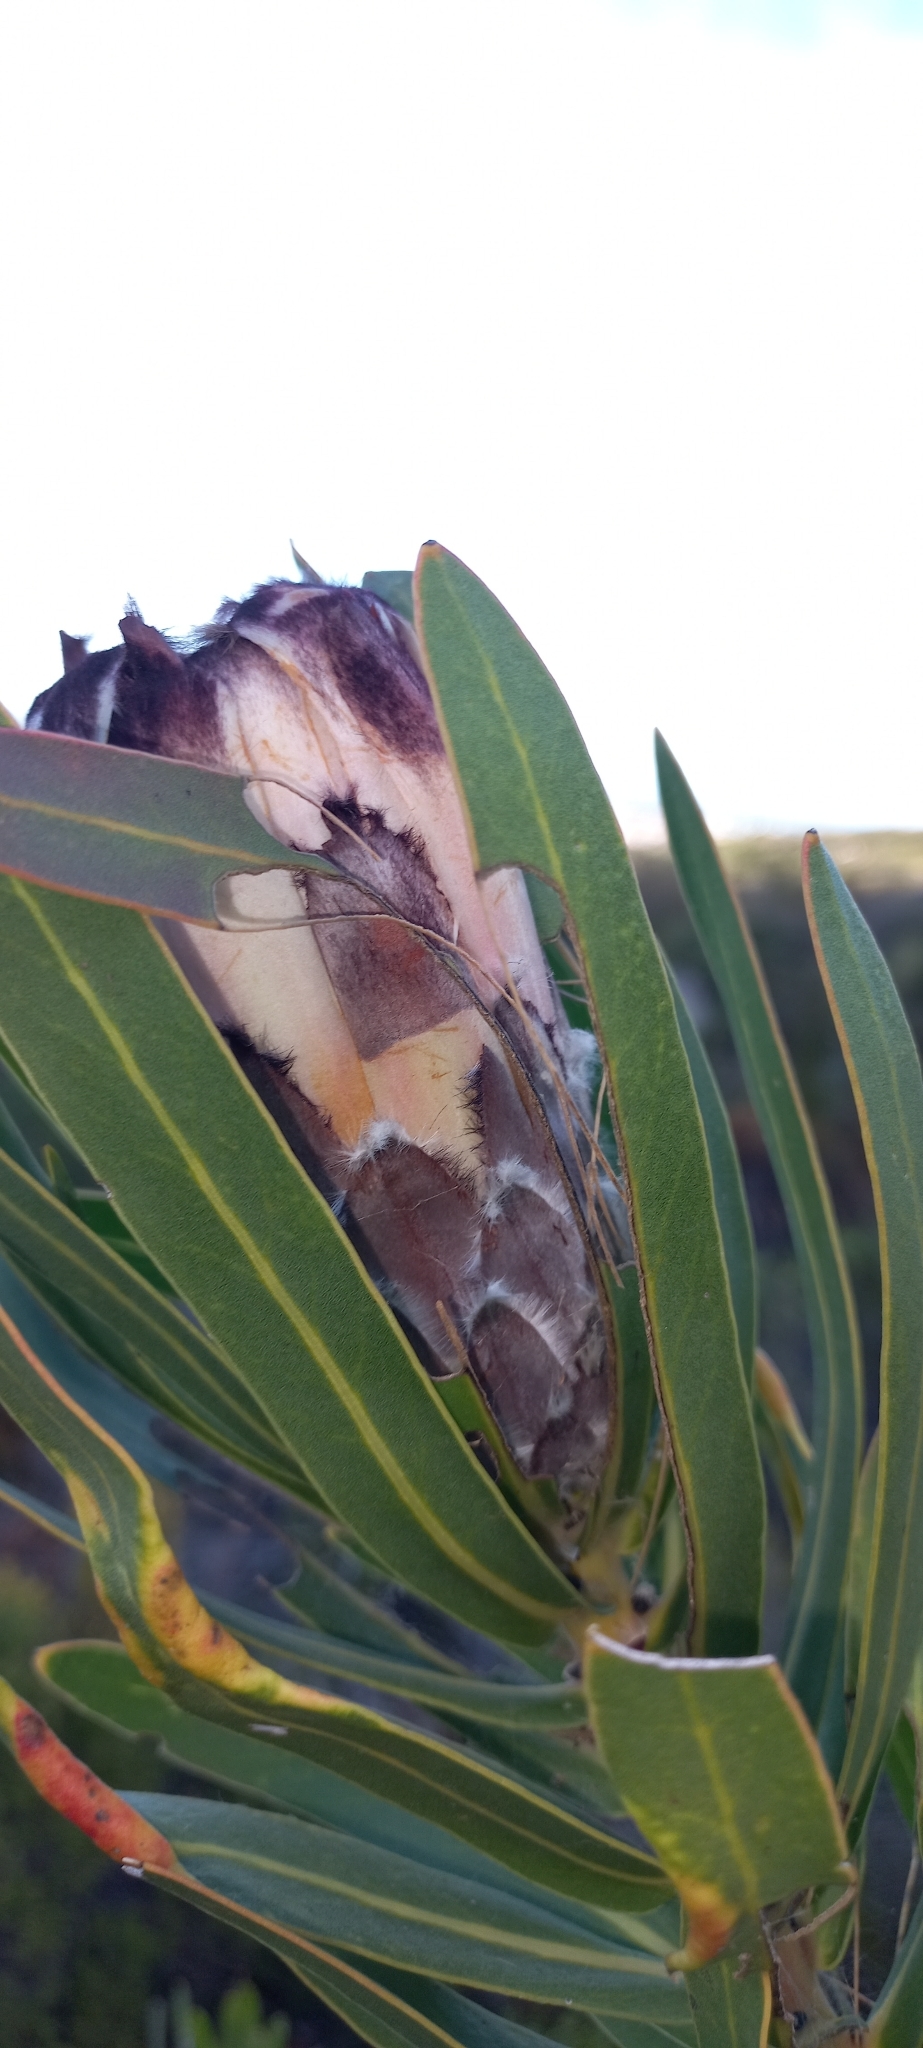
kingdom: Plantae
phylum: Tracheophyta
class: Magnoliopsida
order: Proteales
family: Proteaceae
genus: Protea
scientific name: Protea lepidocarpodendron
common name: Black-bearded protea
